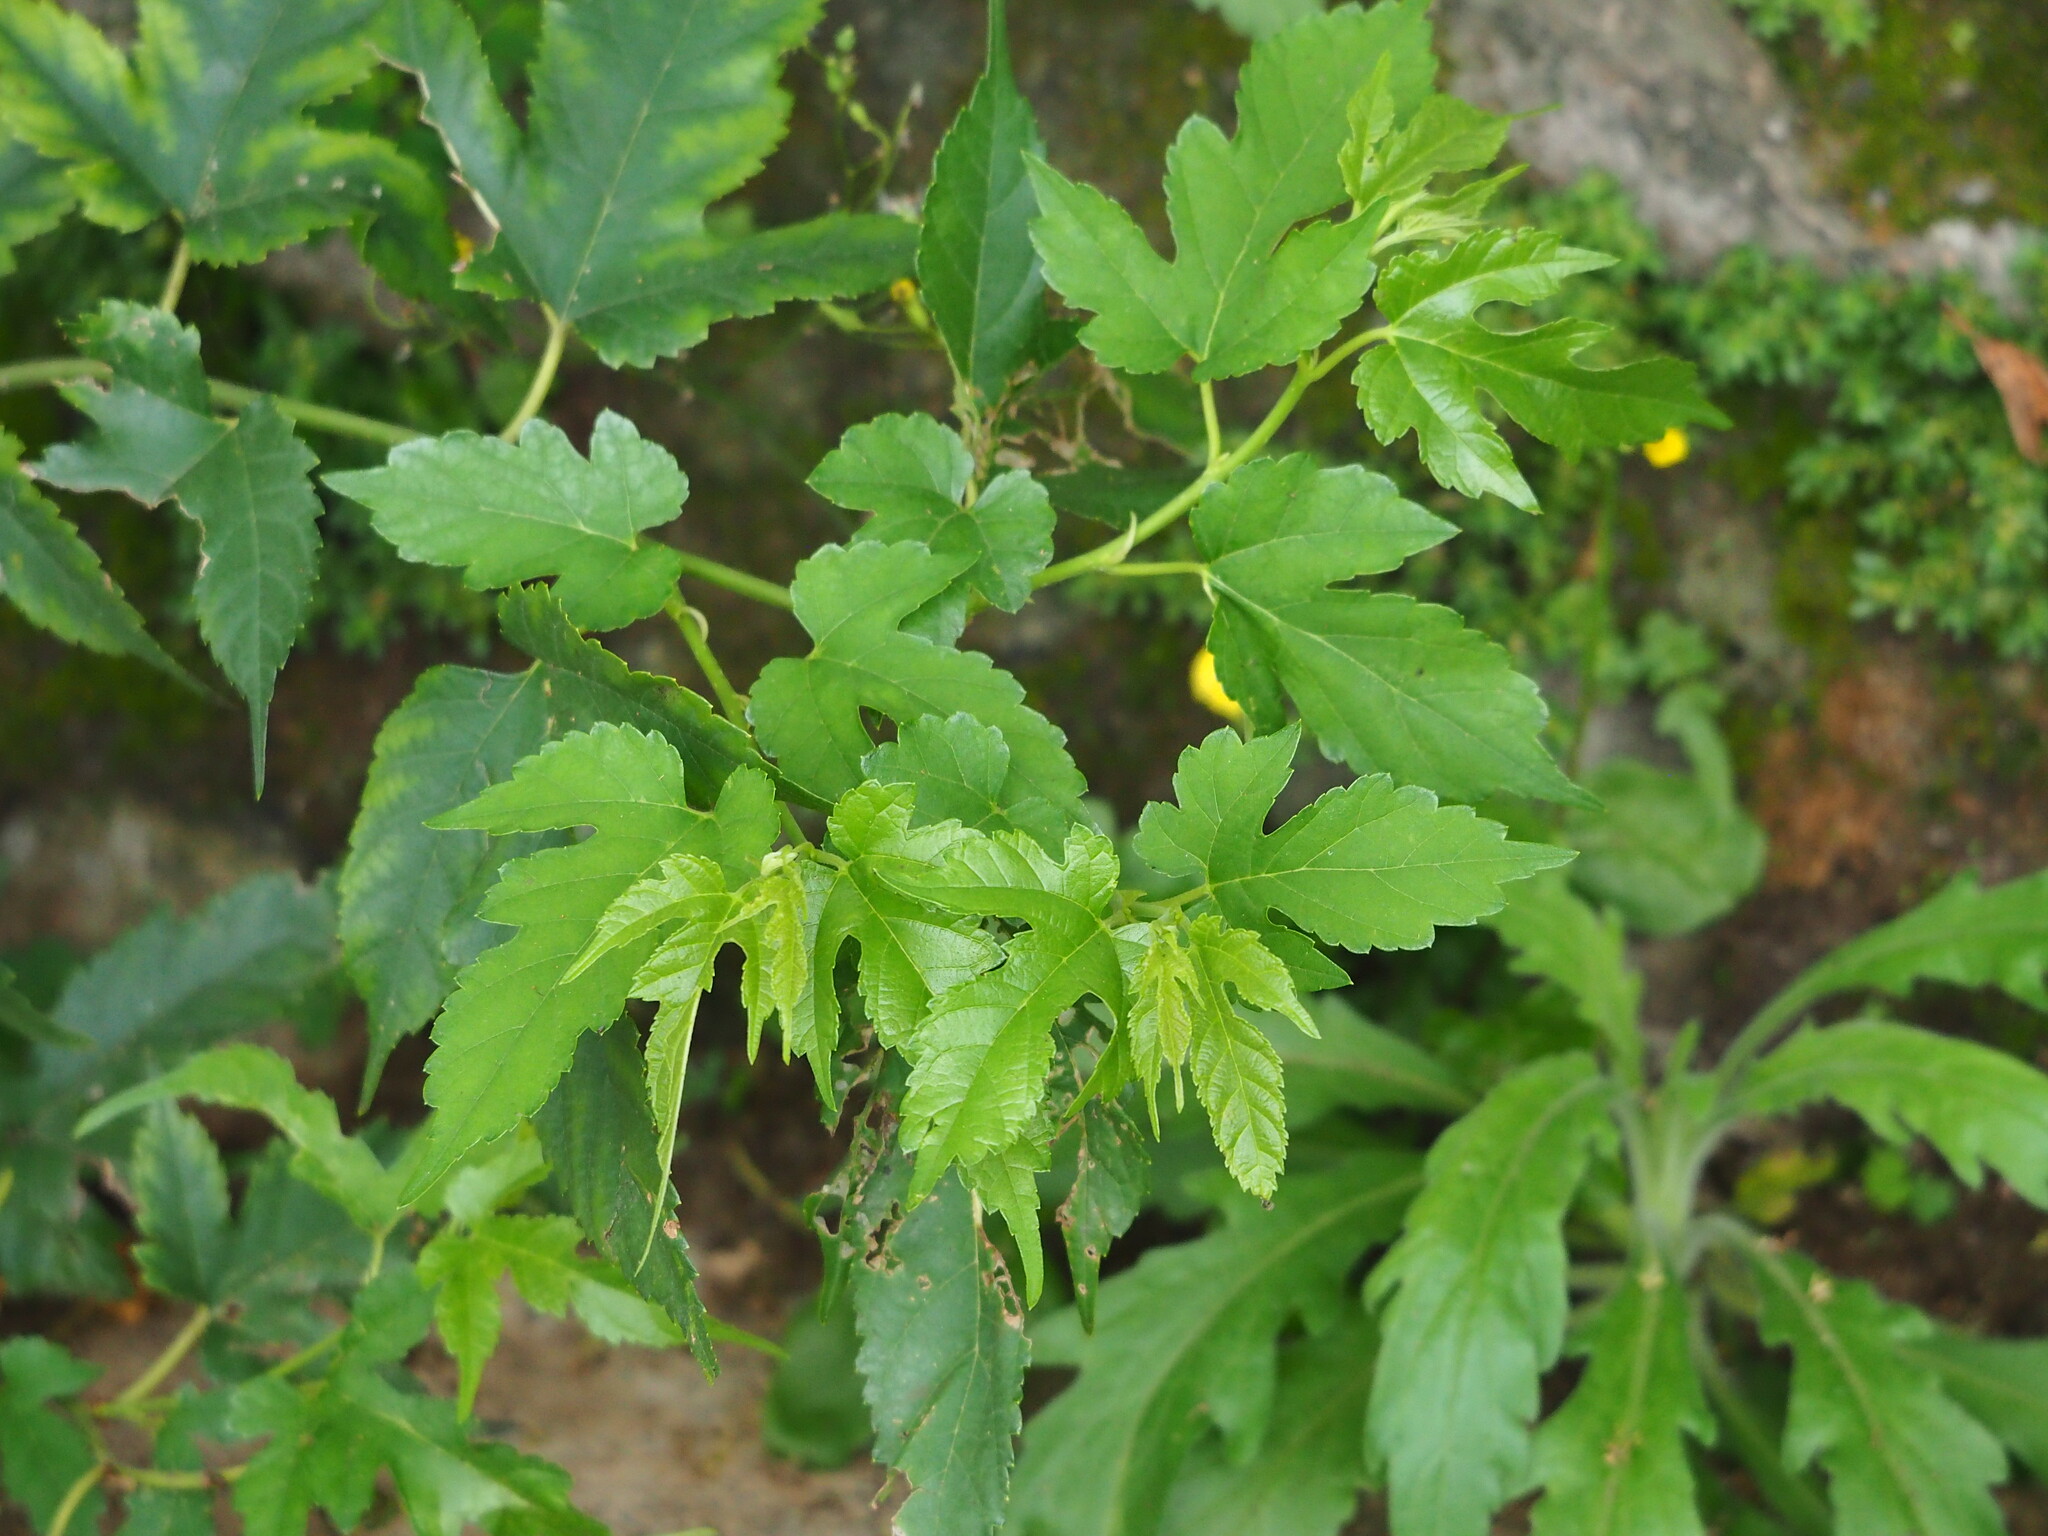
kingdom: Plantae
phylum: Tracheophyta
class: Magnoliopsida
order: Rosales
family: Moraceae
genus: Morus
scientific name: Morus indica
